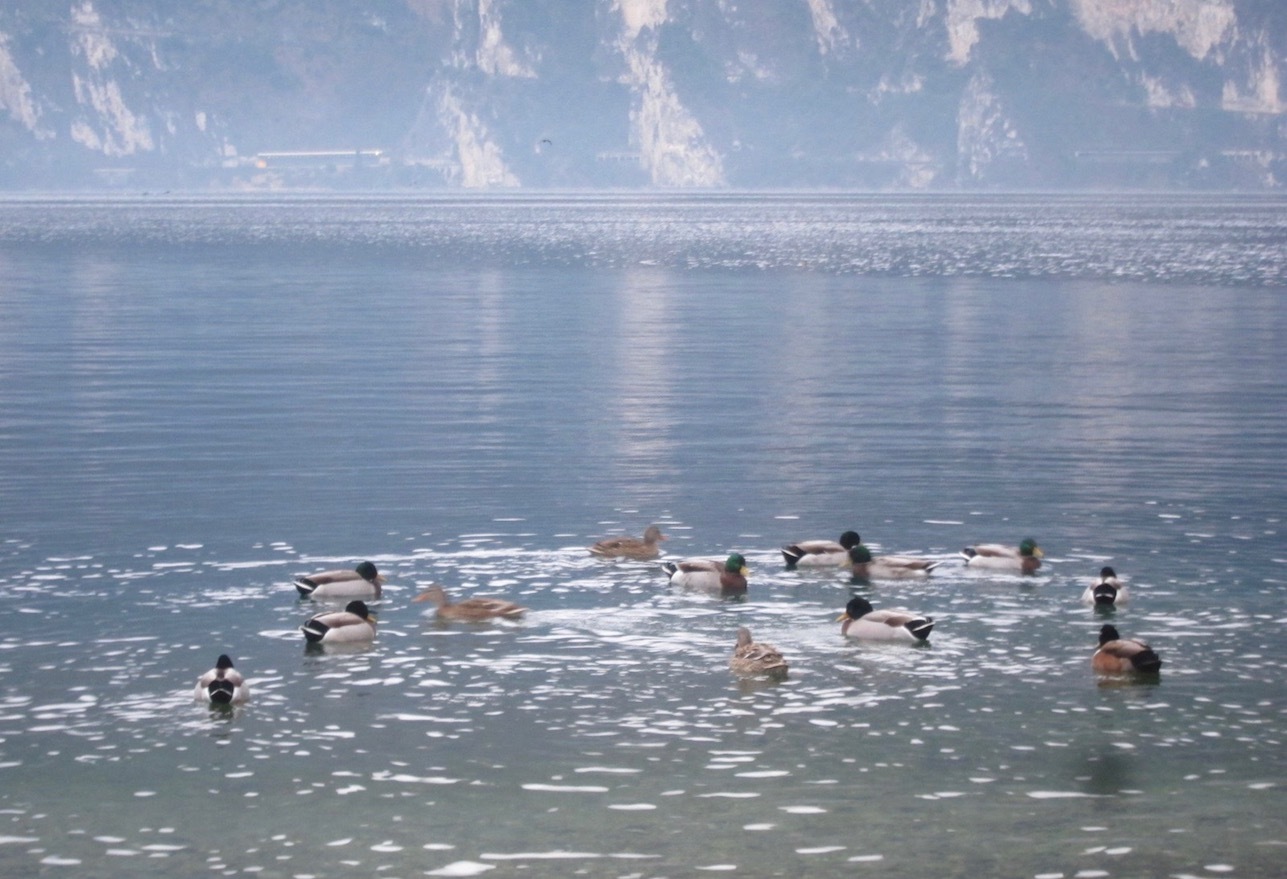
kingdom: Animalia
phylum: Chordata
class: Aves
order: Anseriformes
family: Anatidae
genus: Anas
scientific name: Anas platyrhynchos
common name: Mallard
